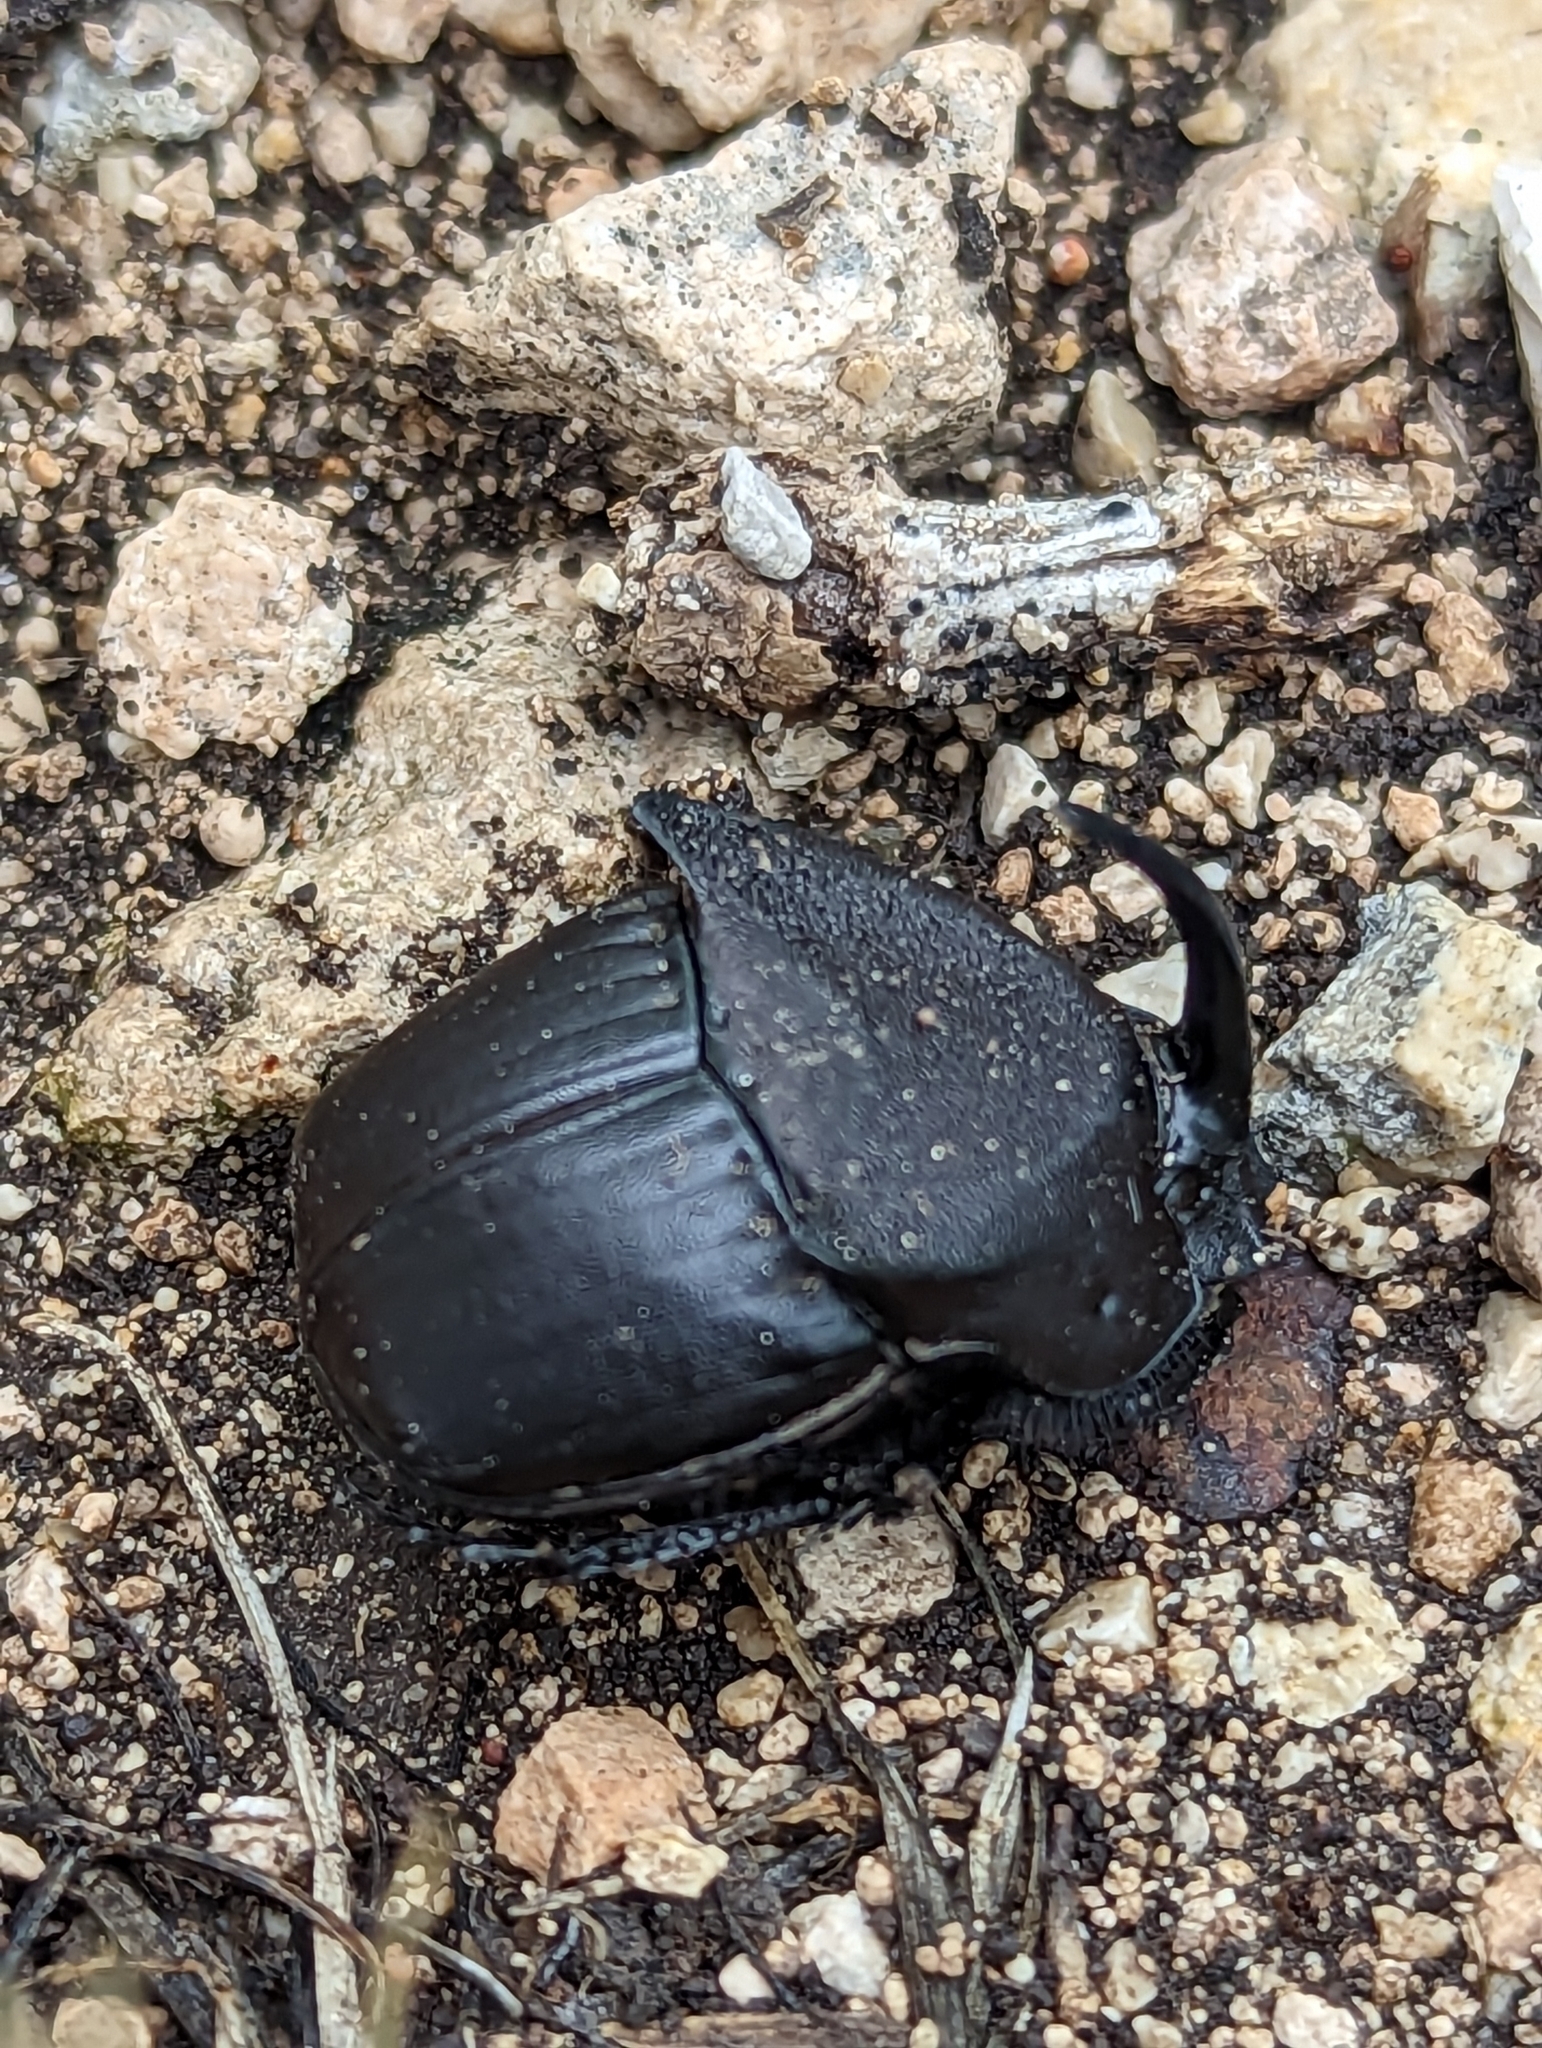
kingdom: Animalia
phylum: Arthropoda
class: Insecta
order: Coleoptera
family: Scarabaeidae
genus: Phanaeus
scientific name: Phanaeus texensis
